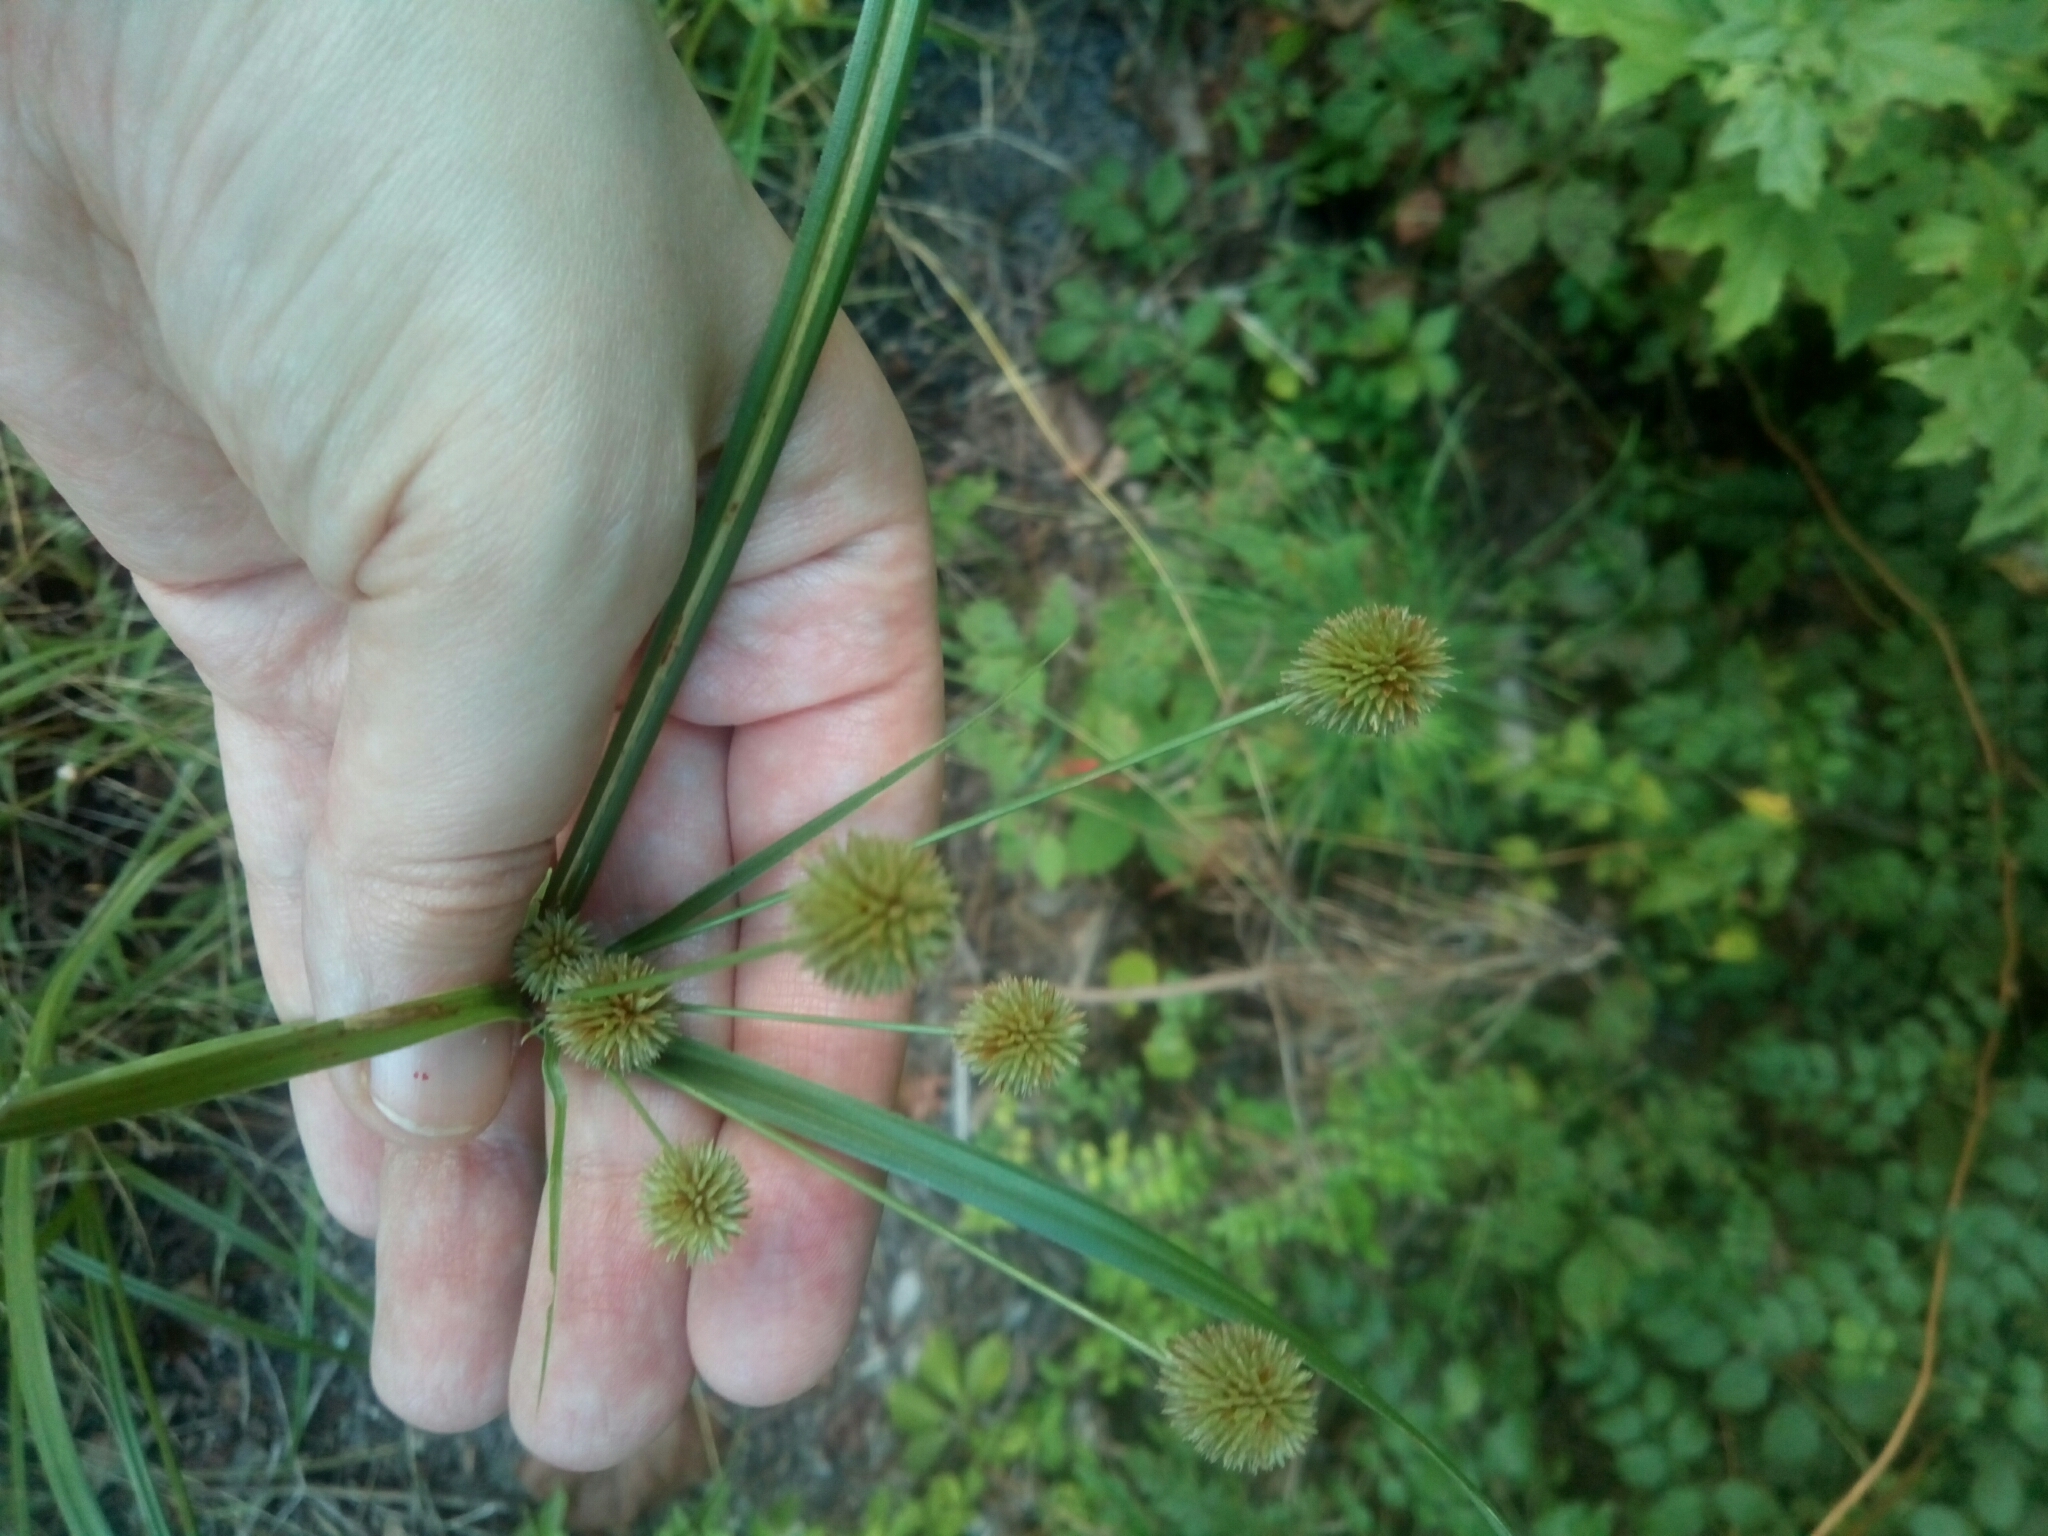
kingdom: Plantae
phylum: Tracheophyta
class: Liliopsida
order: Poales
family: Cyperaceae
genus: Cyperus
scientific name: Cyperus echinatus
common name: Teasel sedge
